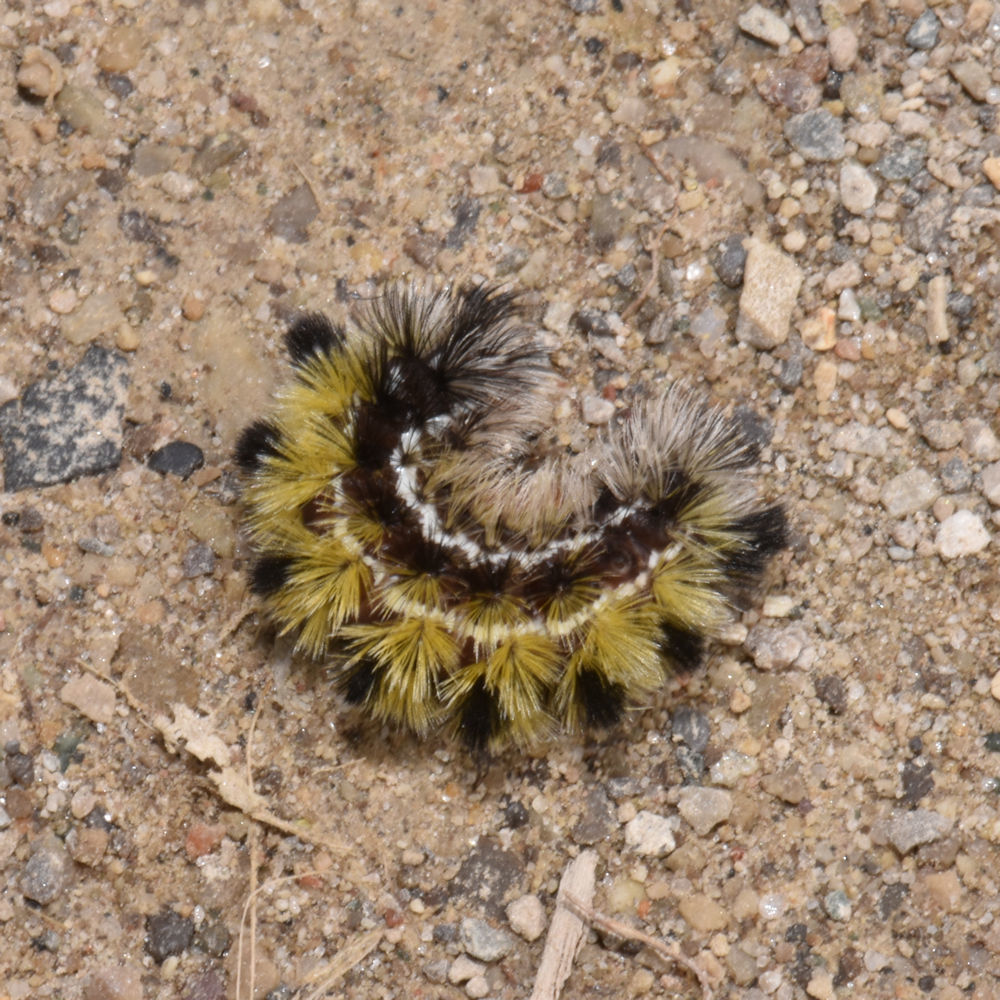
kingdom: Animalia
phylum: Arthropoda
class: Insecta
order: Lepidoptera
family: Erebidae
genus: Ctenucha
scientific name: Ctenucha virginica
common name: Virginia ctenucha moth
